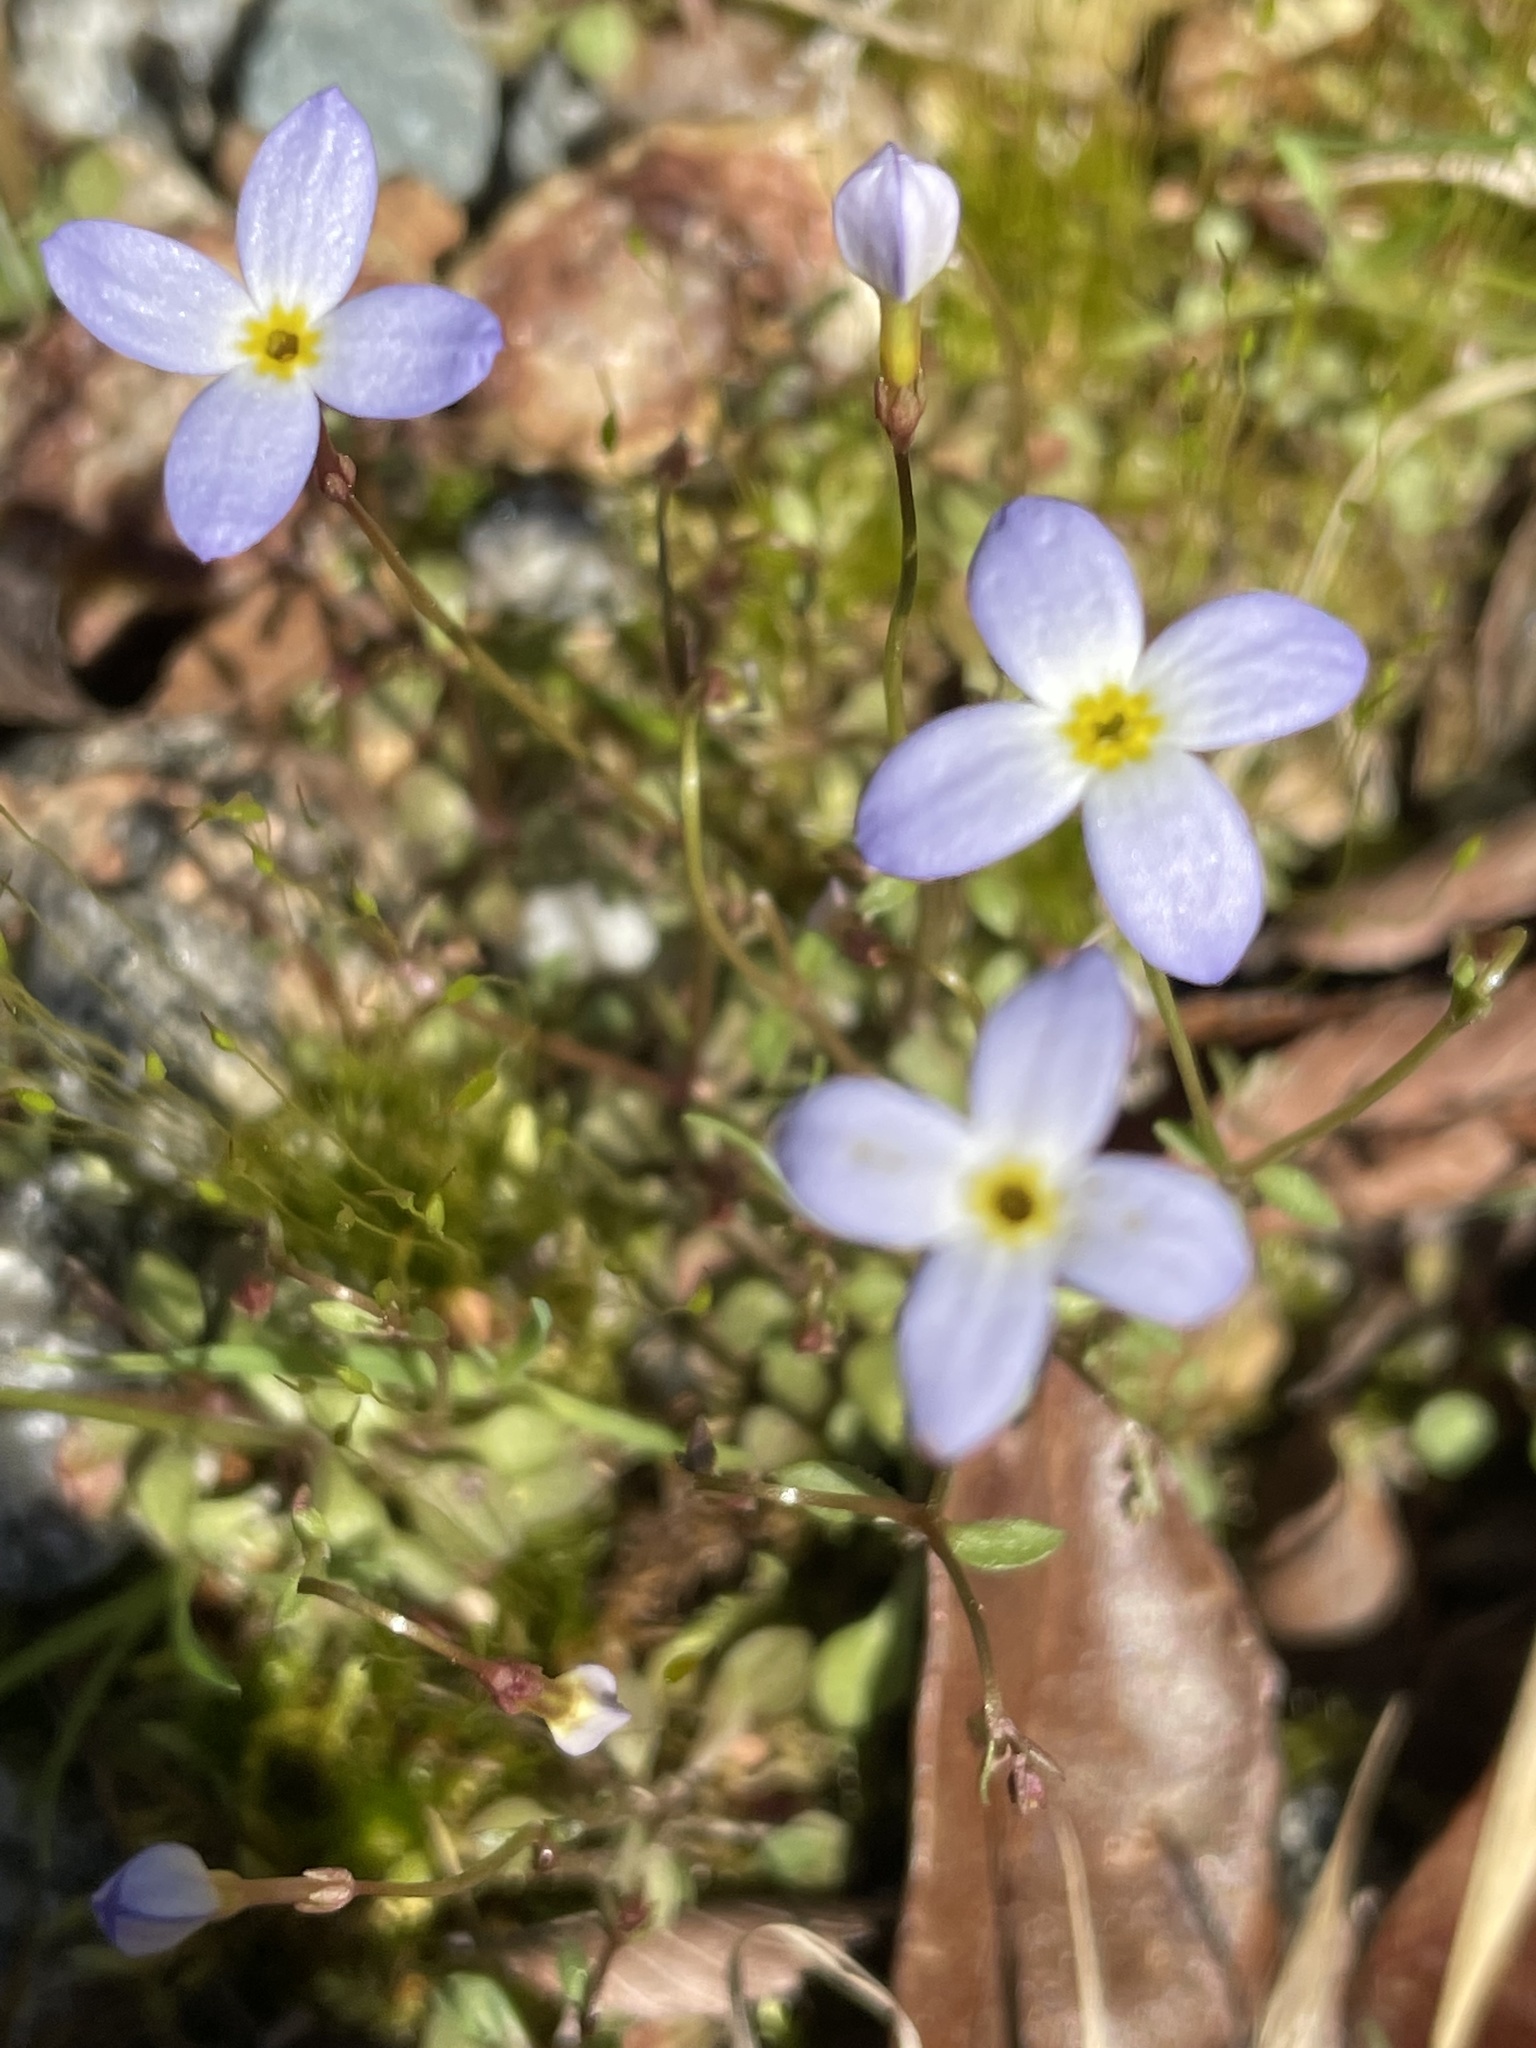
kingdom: Plantae
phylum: Tracheophyta
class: Magnoliopsida
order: Gentianales
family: Rubiaceae
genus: Houstonia
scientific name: Houstonia caerulea
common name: Bluets
